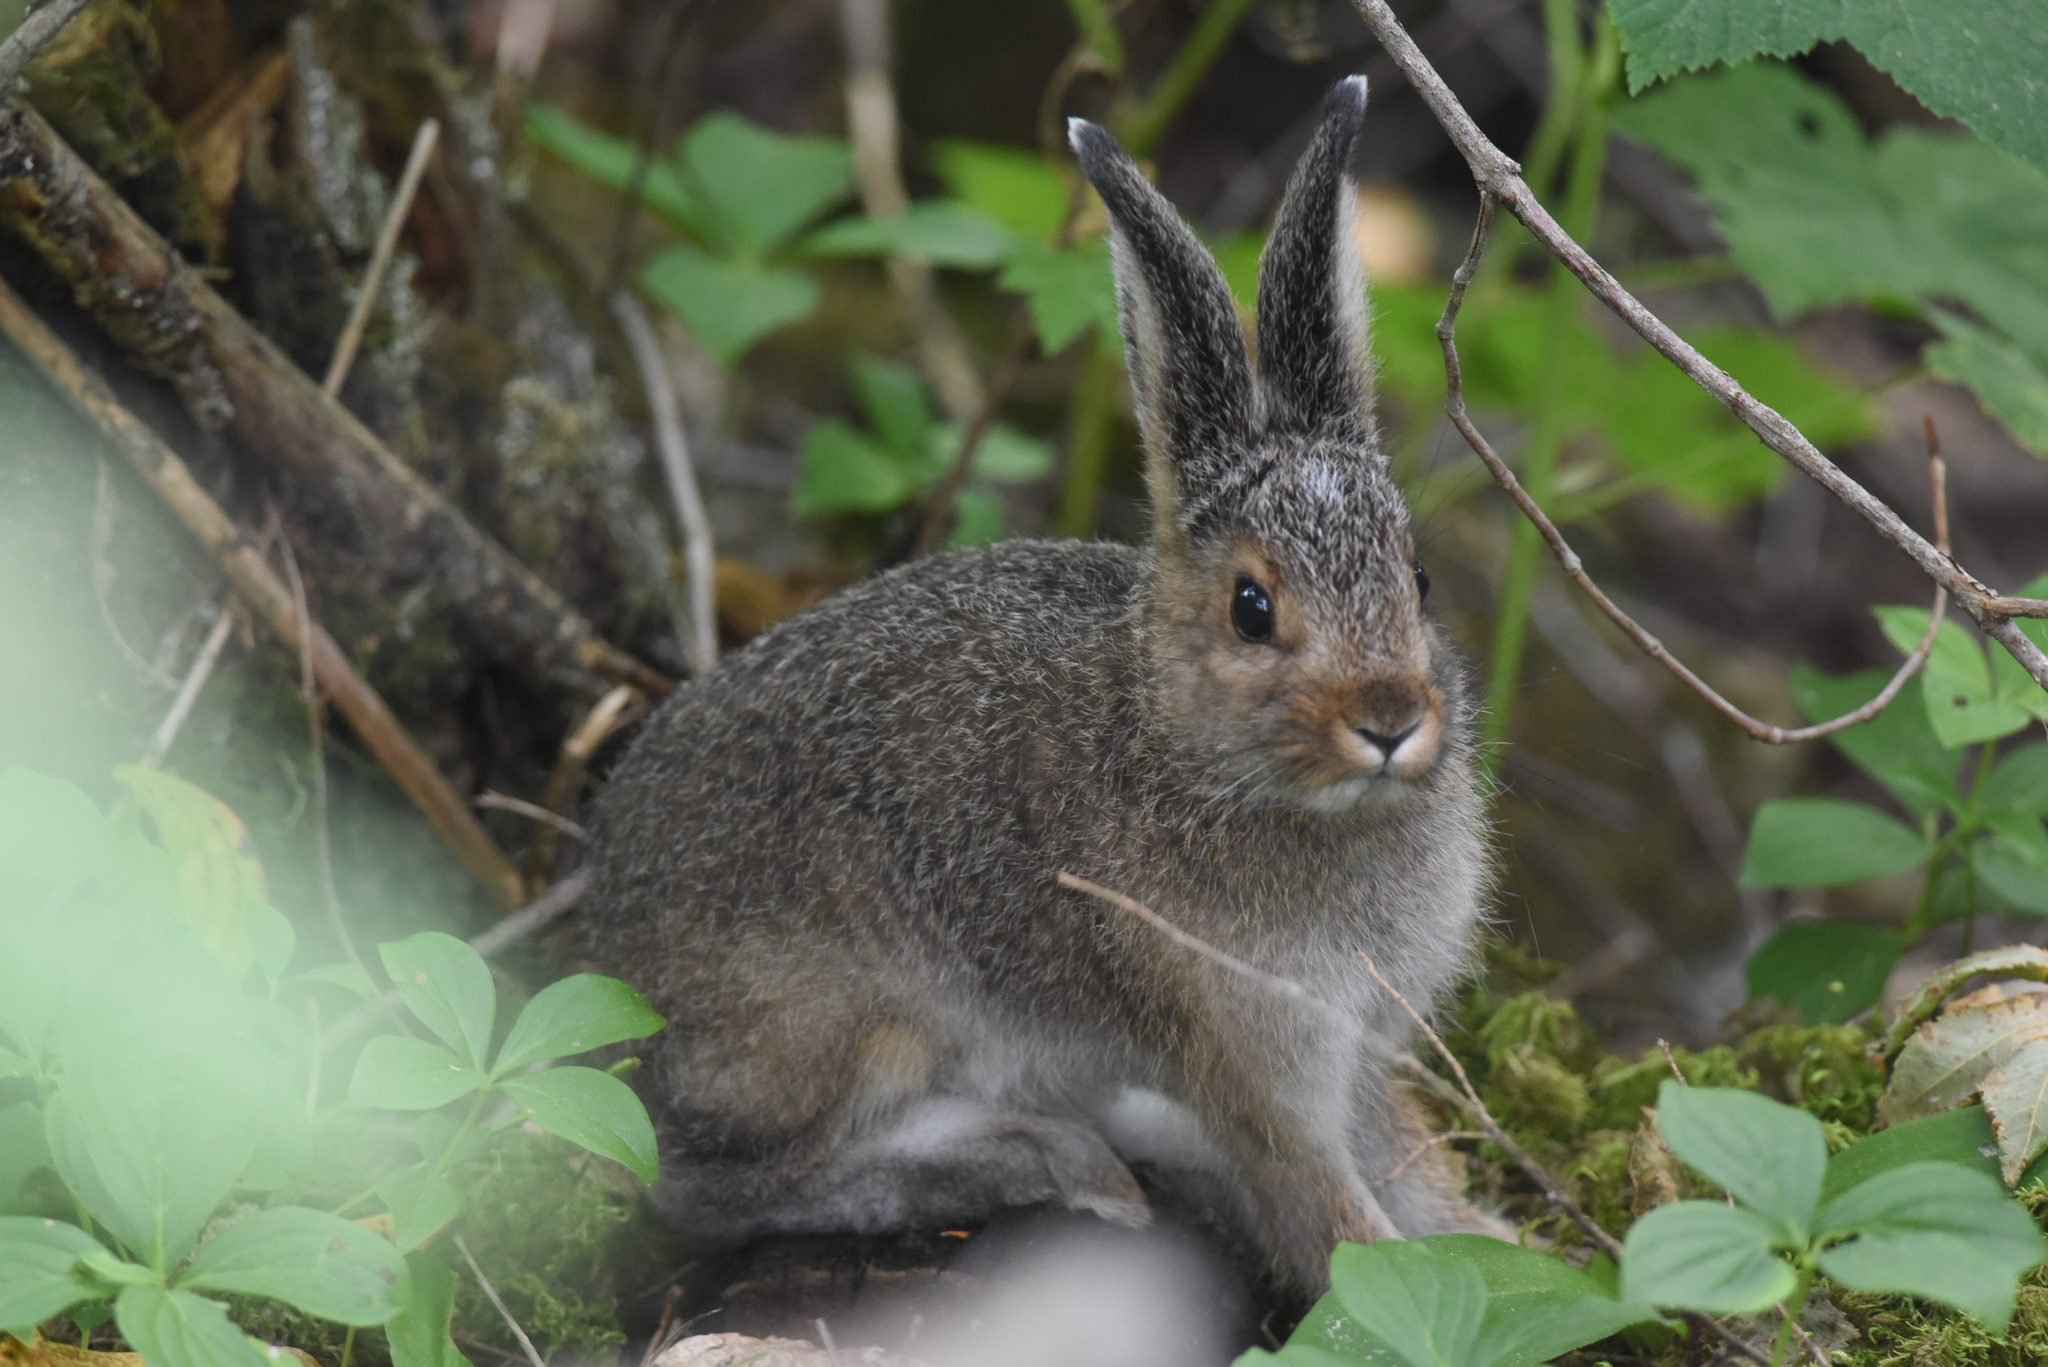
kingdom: Animalia
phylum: Chordata
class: Mammalia
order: Lagomorpha
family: Leporidae
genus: Lepus
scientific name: Lepus americanus
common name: Snowshoe hare
